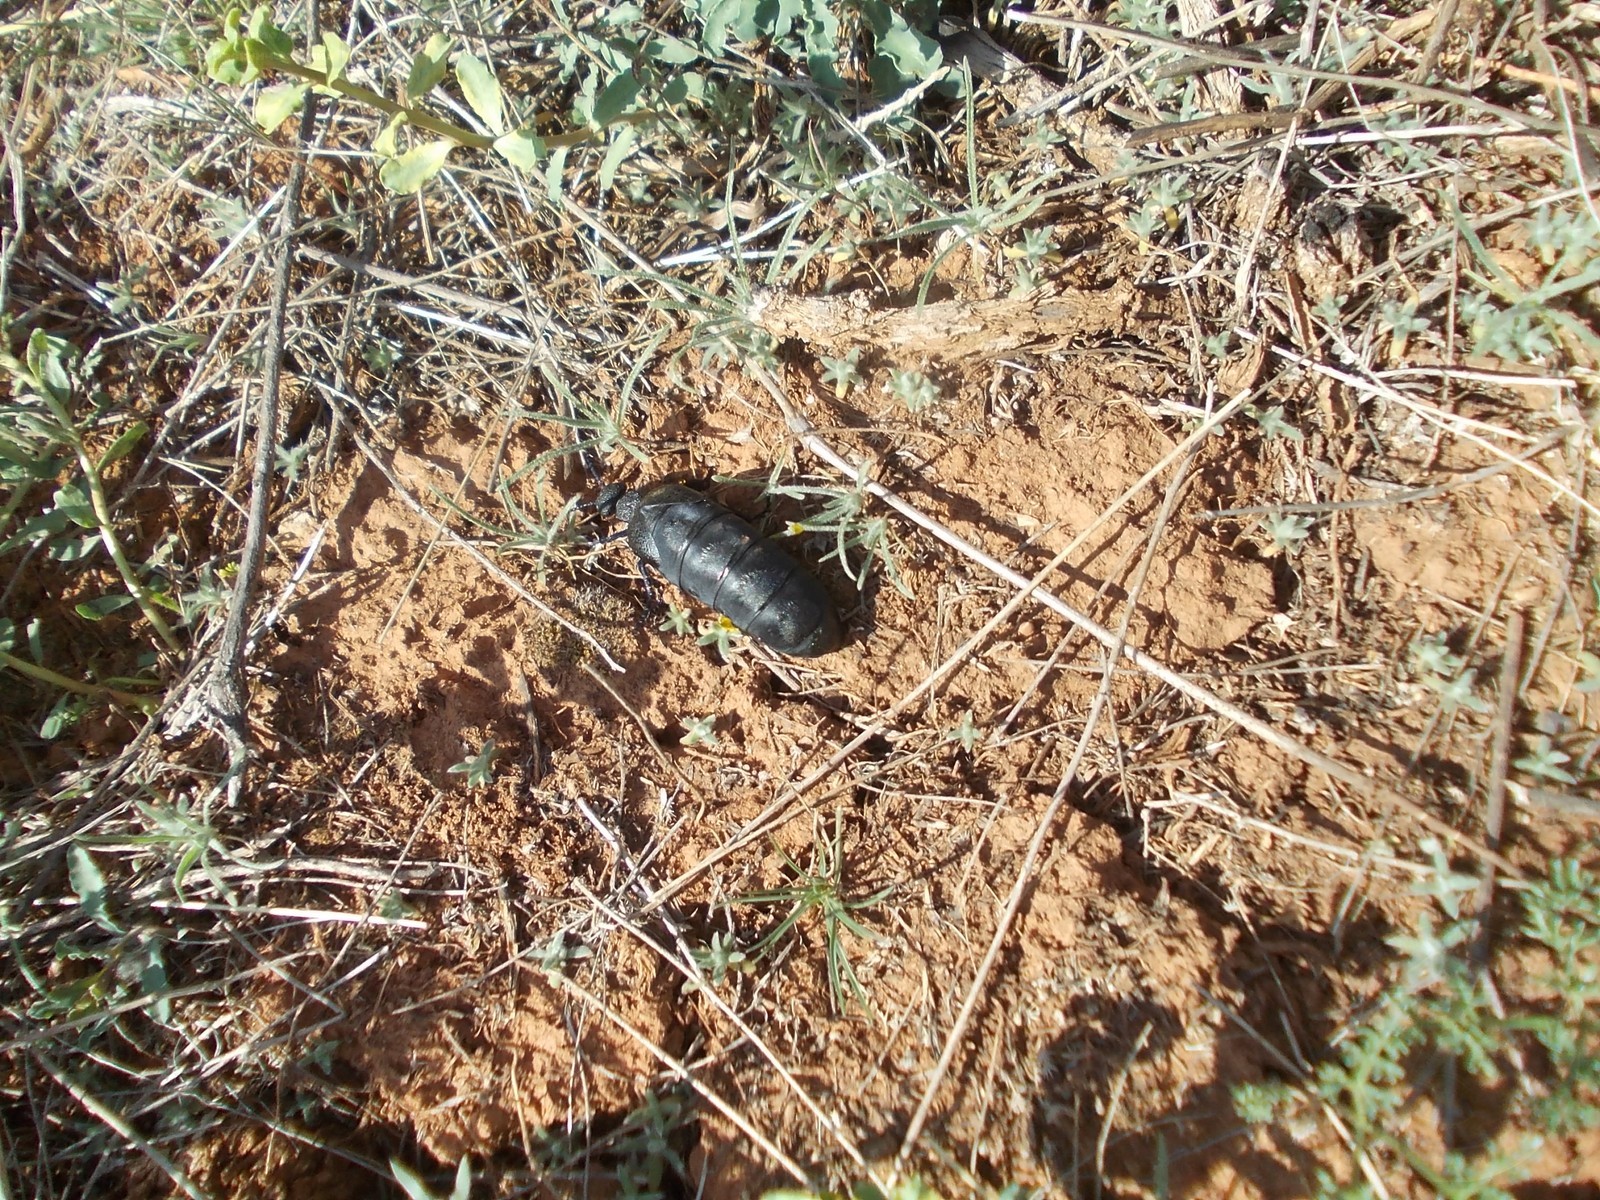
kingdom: Animalia
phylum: Arthropoda
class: Insecta
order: Coleoptera
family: Meloidae
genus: Meloe
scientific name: Meloe cicatricosus
